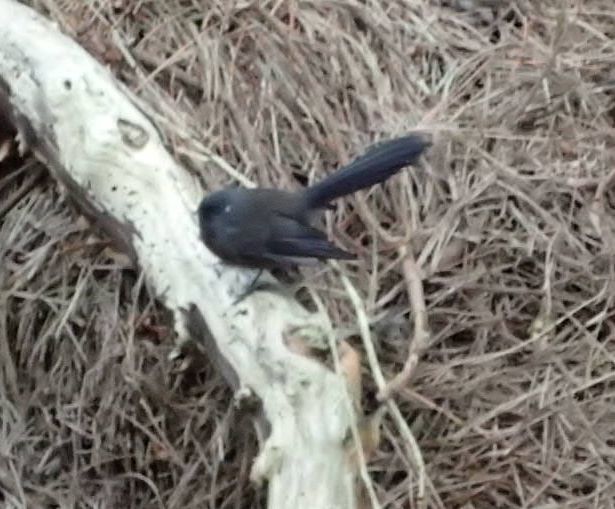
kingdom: Animalia
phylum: Chordata
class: Aves
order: Passeriformes
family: Rhipiduridae
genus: Rhipidura
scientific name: Rhipidura fuliginosa
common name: New zealand fantail
